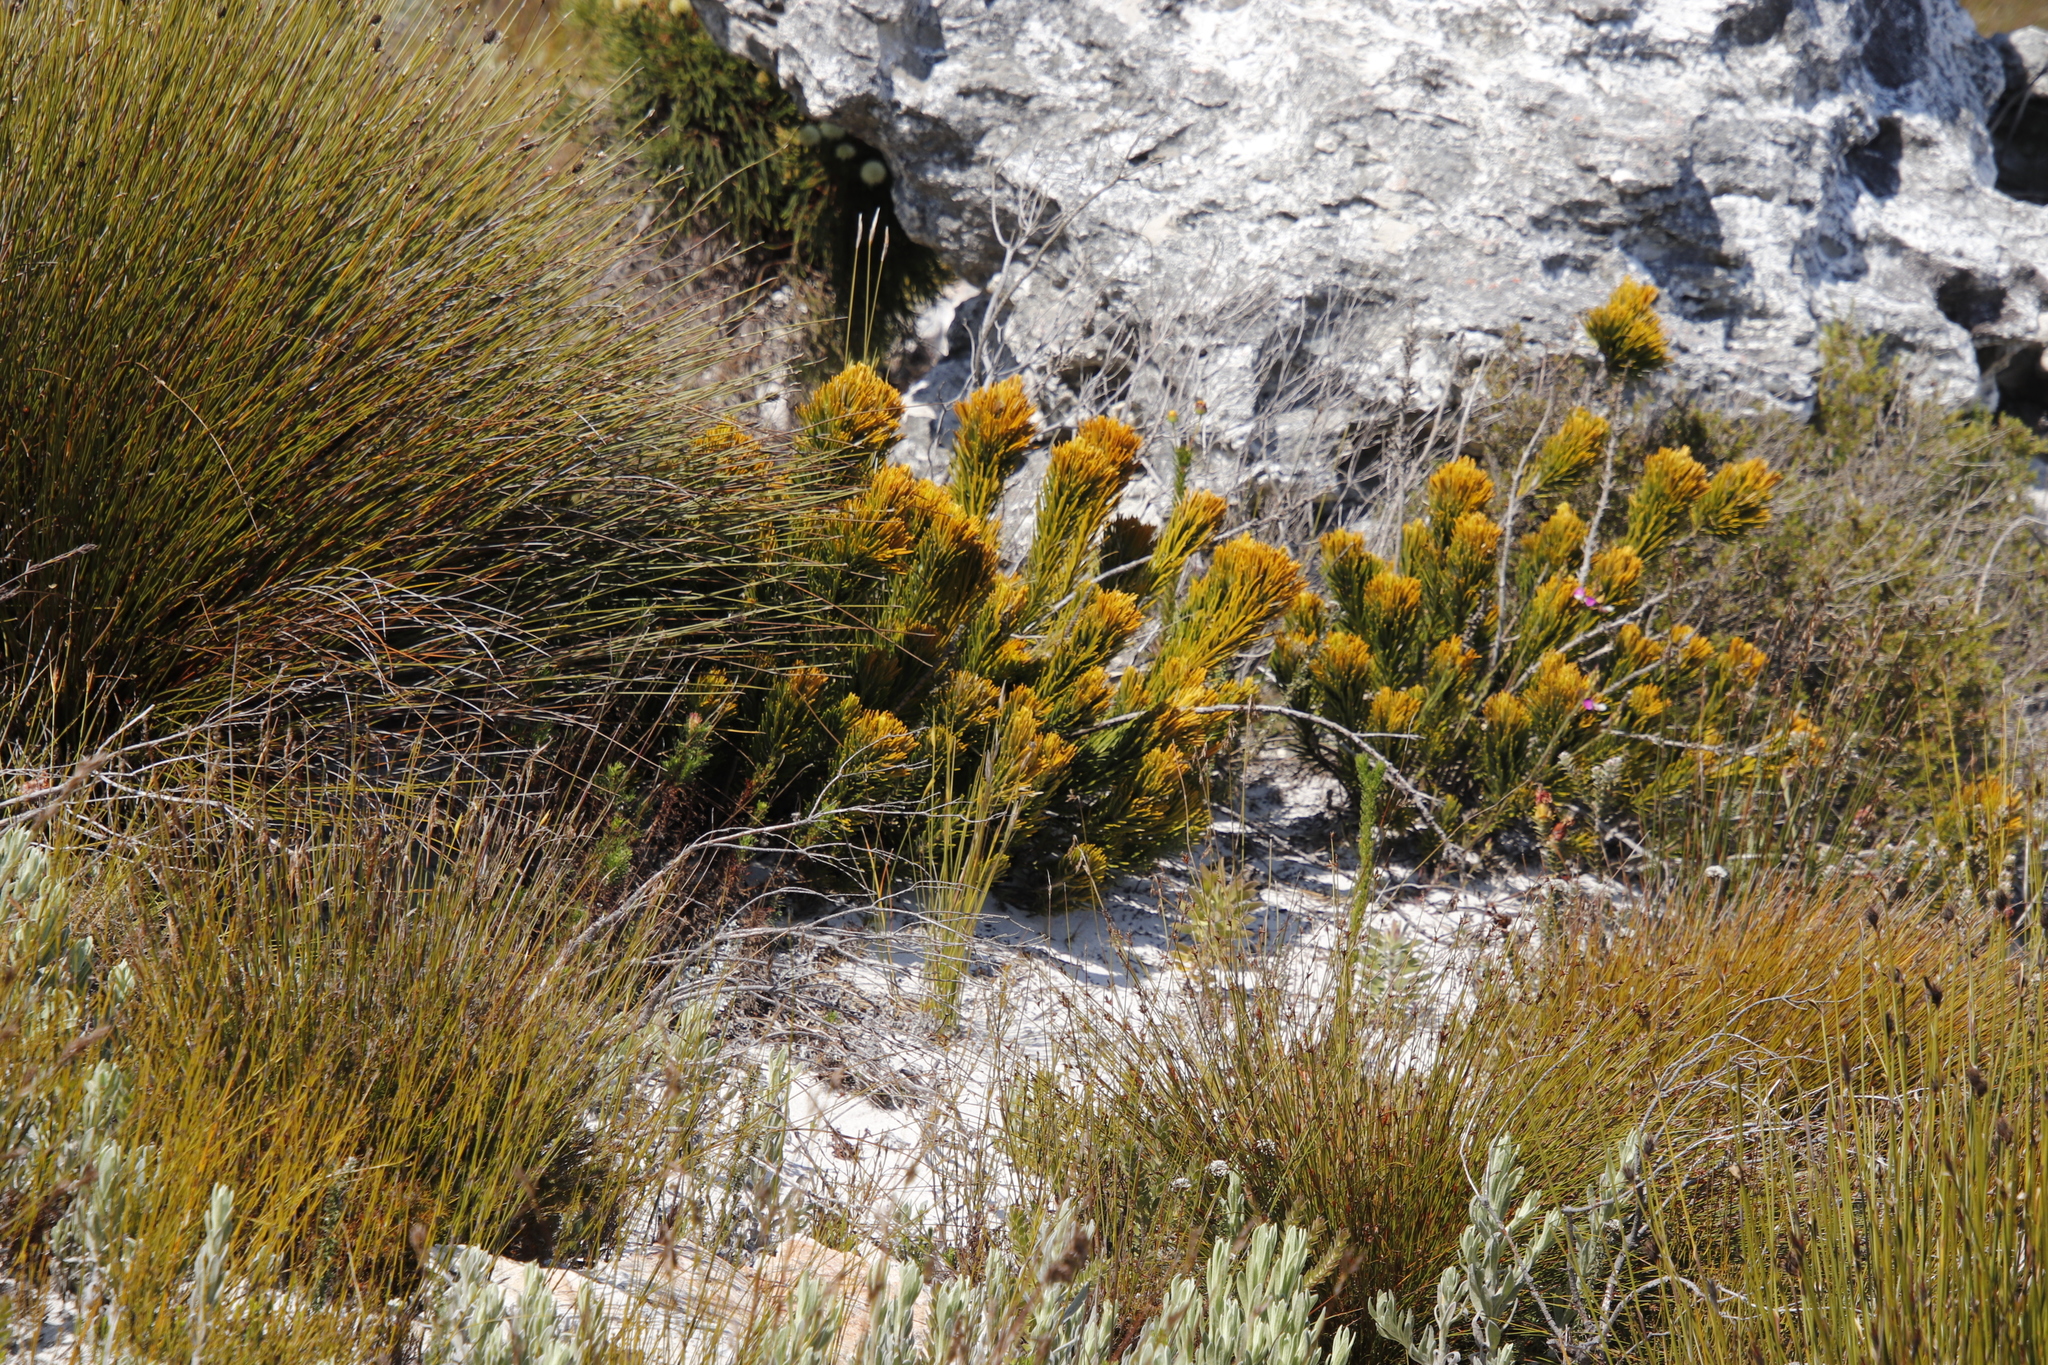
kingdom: Plantae
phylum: Tracheophyta
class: Magnoliopsida
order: Lamiales
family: Stilbaceae
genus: Retzia
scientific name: Retzia capensis
